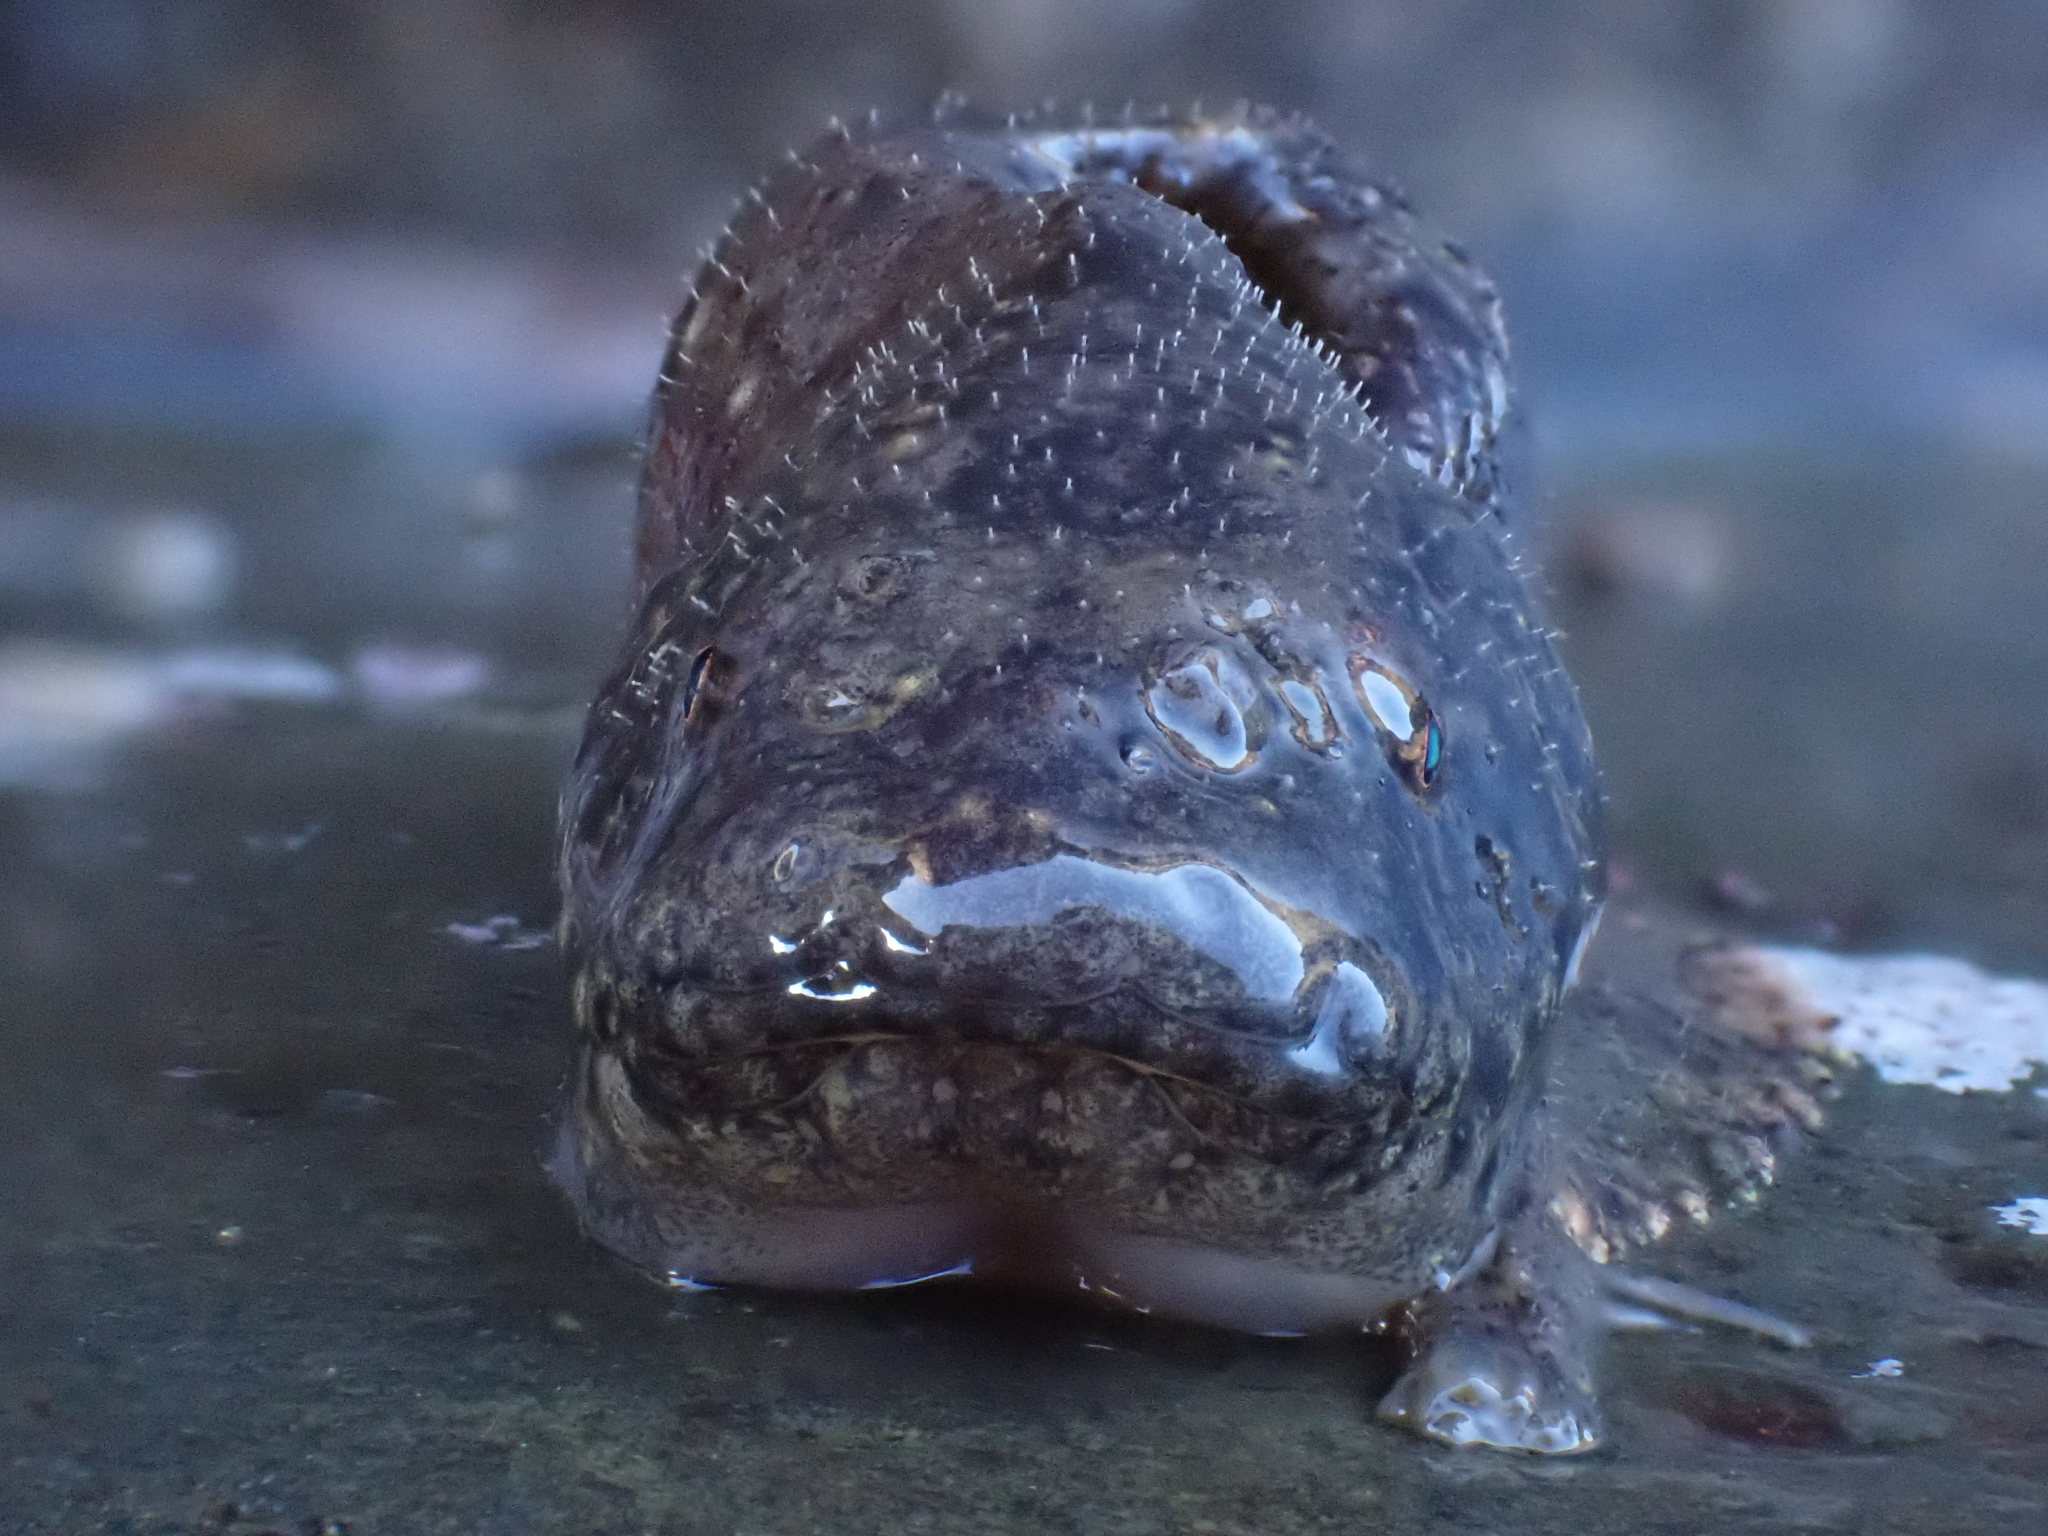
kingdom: Animalia
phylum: Chordata
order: Scorpaeniformes
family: Liparidae
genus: Liparis
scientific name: Liparis atlanticus
